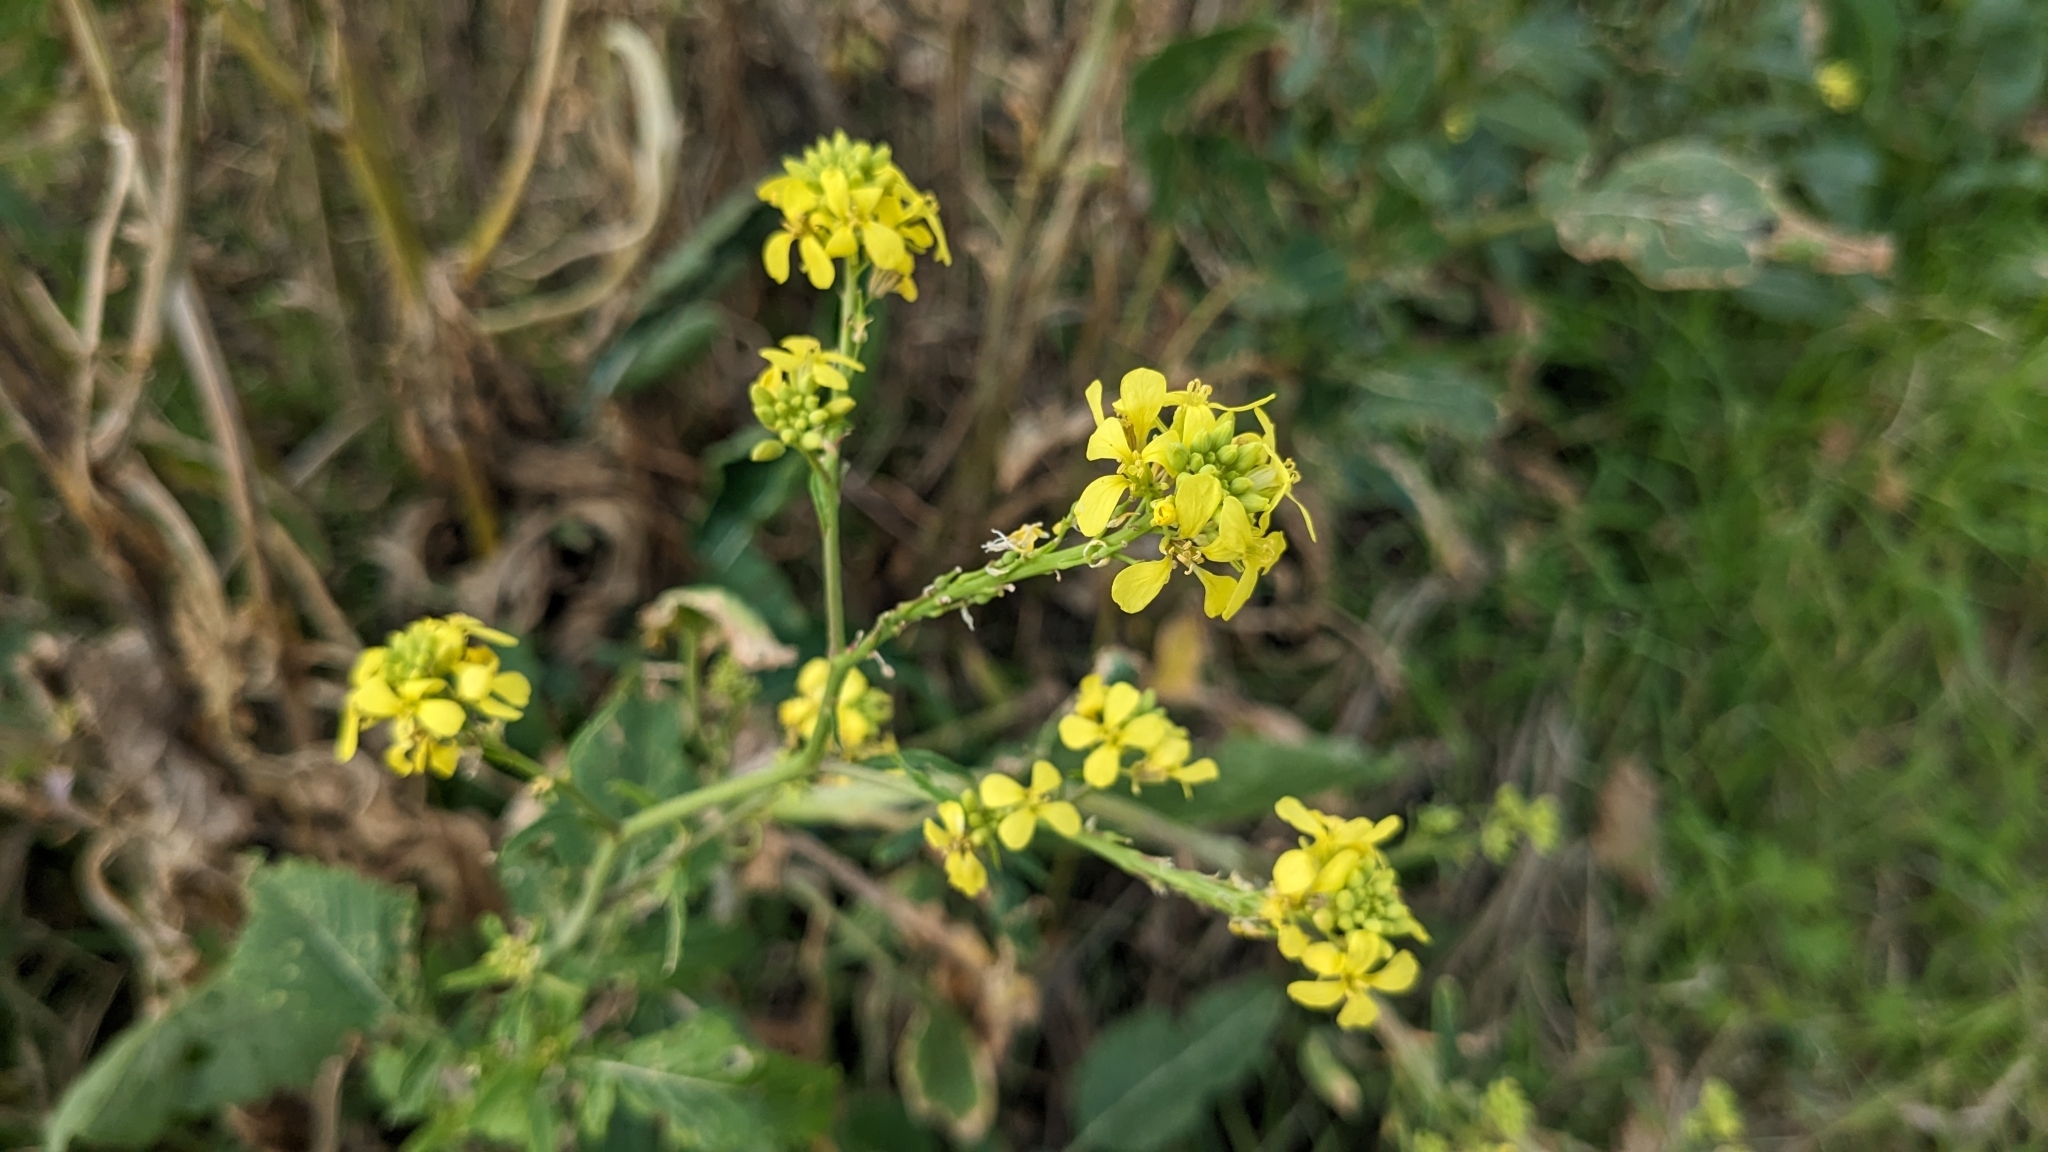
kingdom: Plantae
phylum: Tracheophyta
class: Magnoliopsida
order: Brassicales
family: Brassicaceae
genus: Rapistrum
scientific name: Rapistrum rugosum
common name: Annual bastardcabbage
